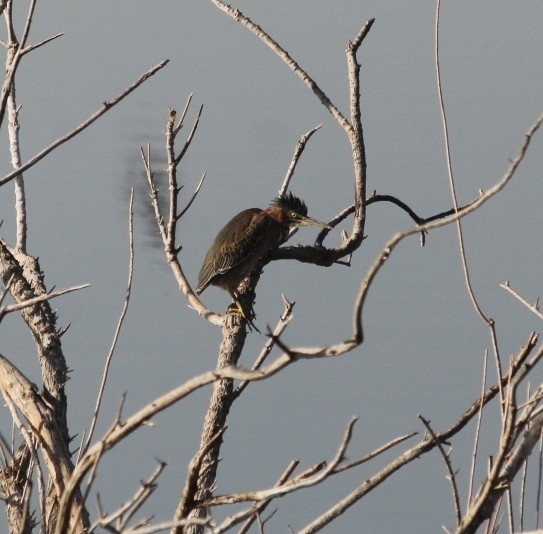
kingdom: Animalia
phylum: Chordata
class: Aves
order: Pelecaniformes
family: Ardeidae
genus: Butorides
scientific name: Butorides virescens
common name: Green heron
